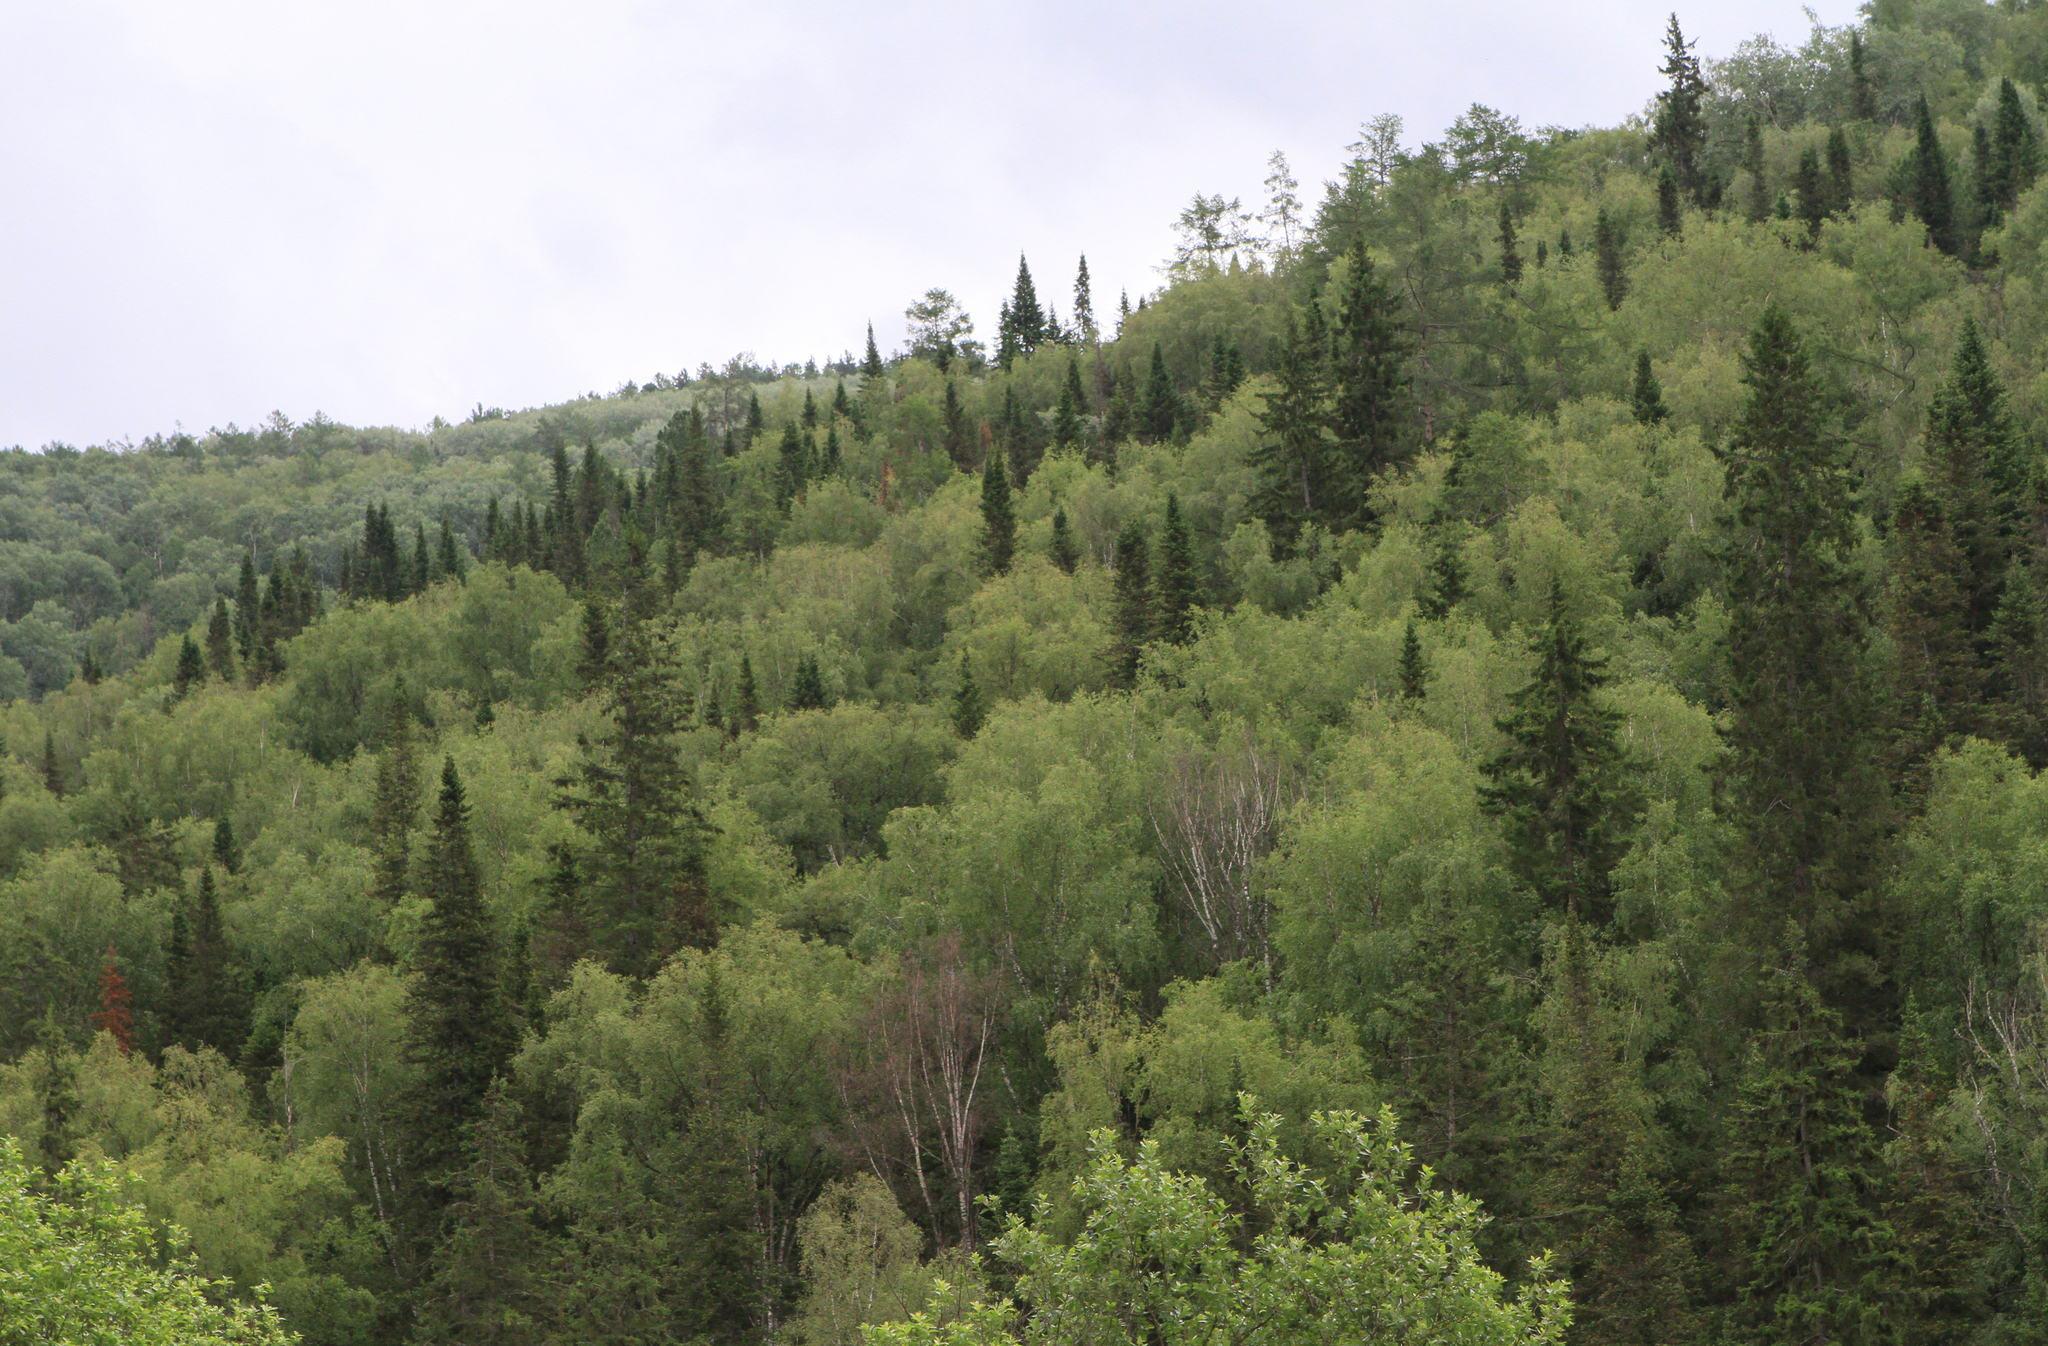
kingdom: Plantae
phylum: Tracheophyta
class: Pinopsida
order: Pinales
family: Pinaceae
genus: Picea
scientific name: Picea obovata
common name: Siberian spruce
